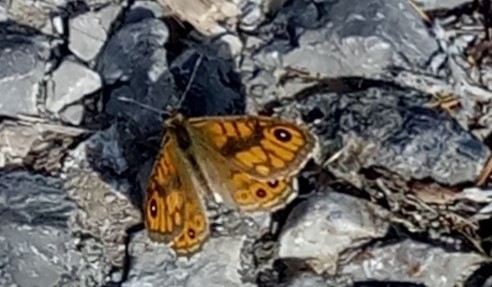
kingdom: Animalia
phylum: Arthropoda
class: Insecta
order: Lepidoptera
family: Nymphalidae
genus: Pararge
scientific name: Pararge Lasiommata megera
